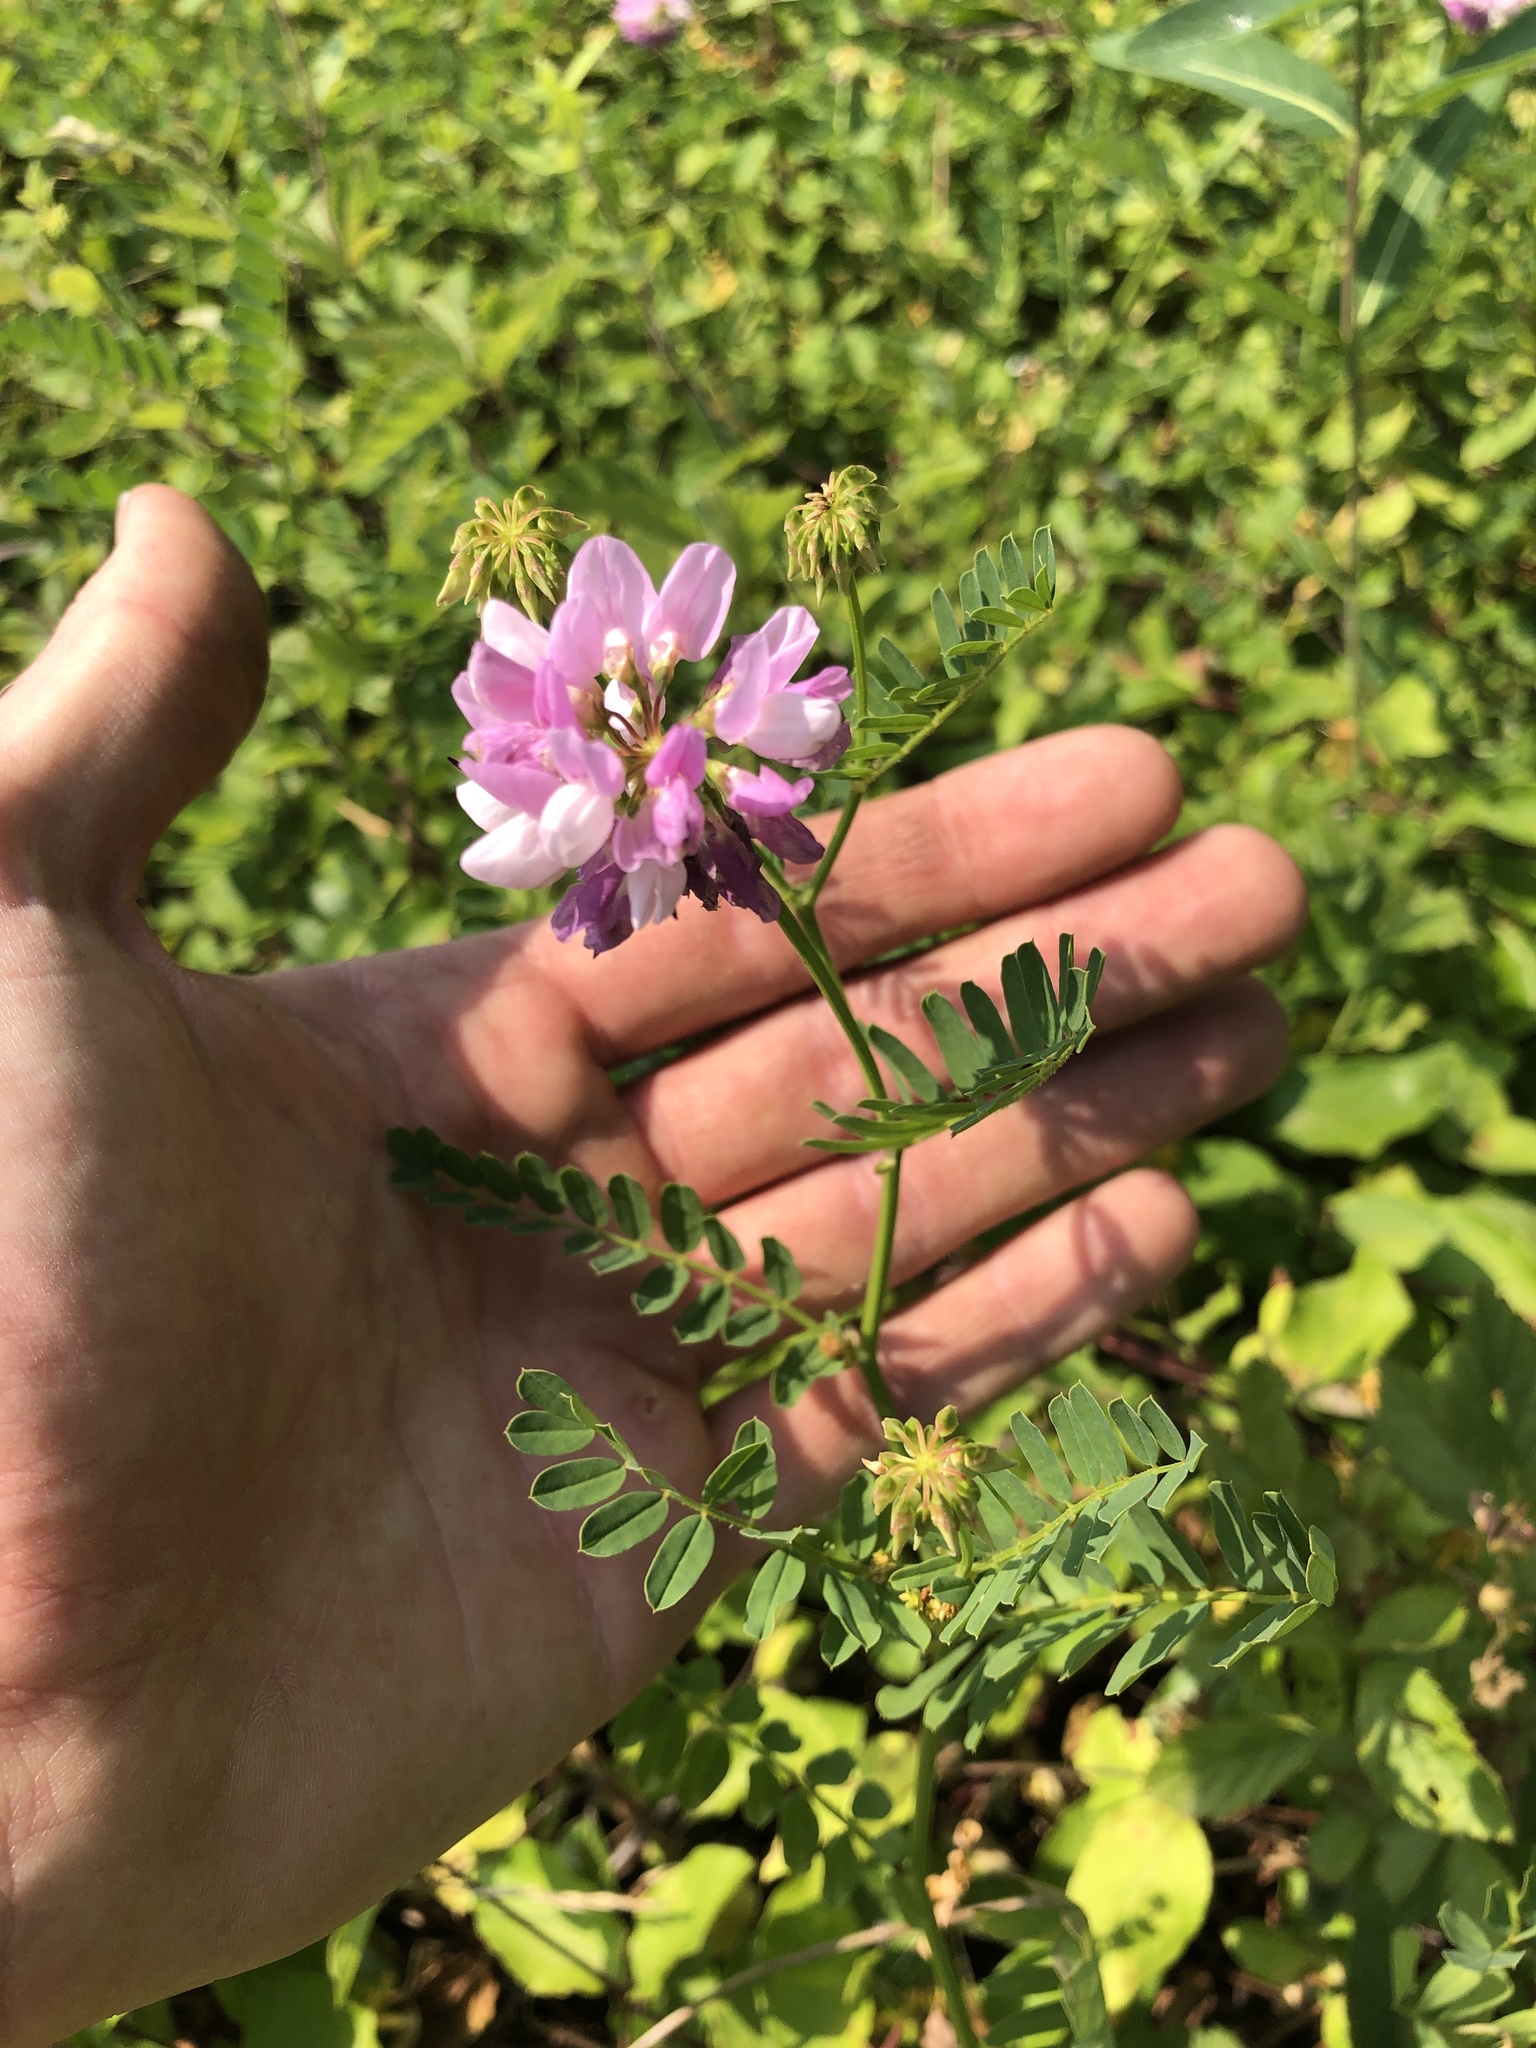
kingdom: Plantae
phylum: Tracheophyta
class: Magnoliopsida
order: Fabales
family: Fabaceae
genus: Coronilla
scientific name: Coronilla varia
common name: Crownvetch
